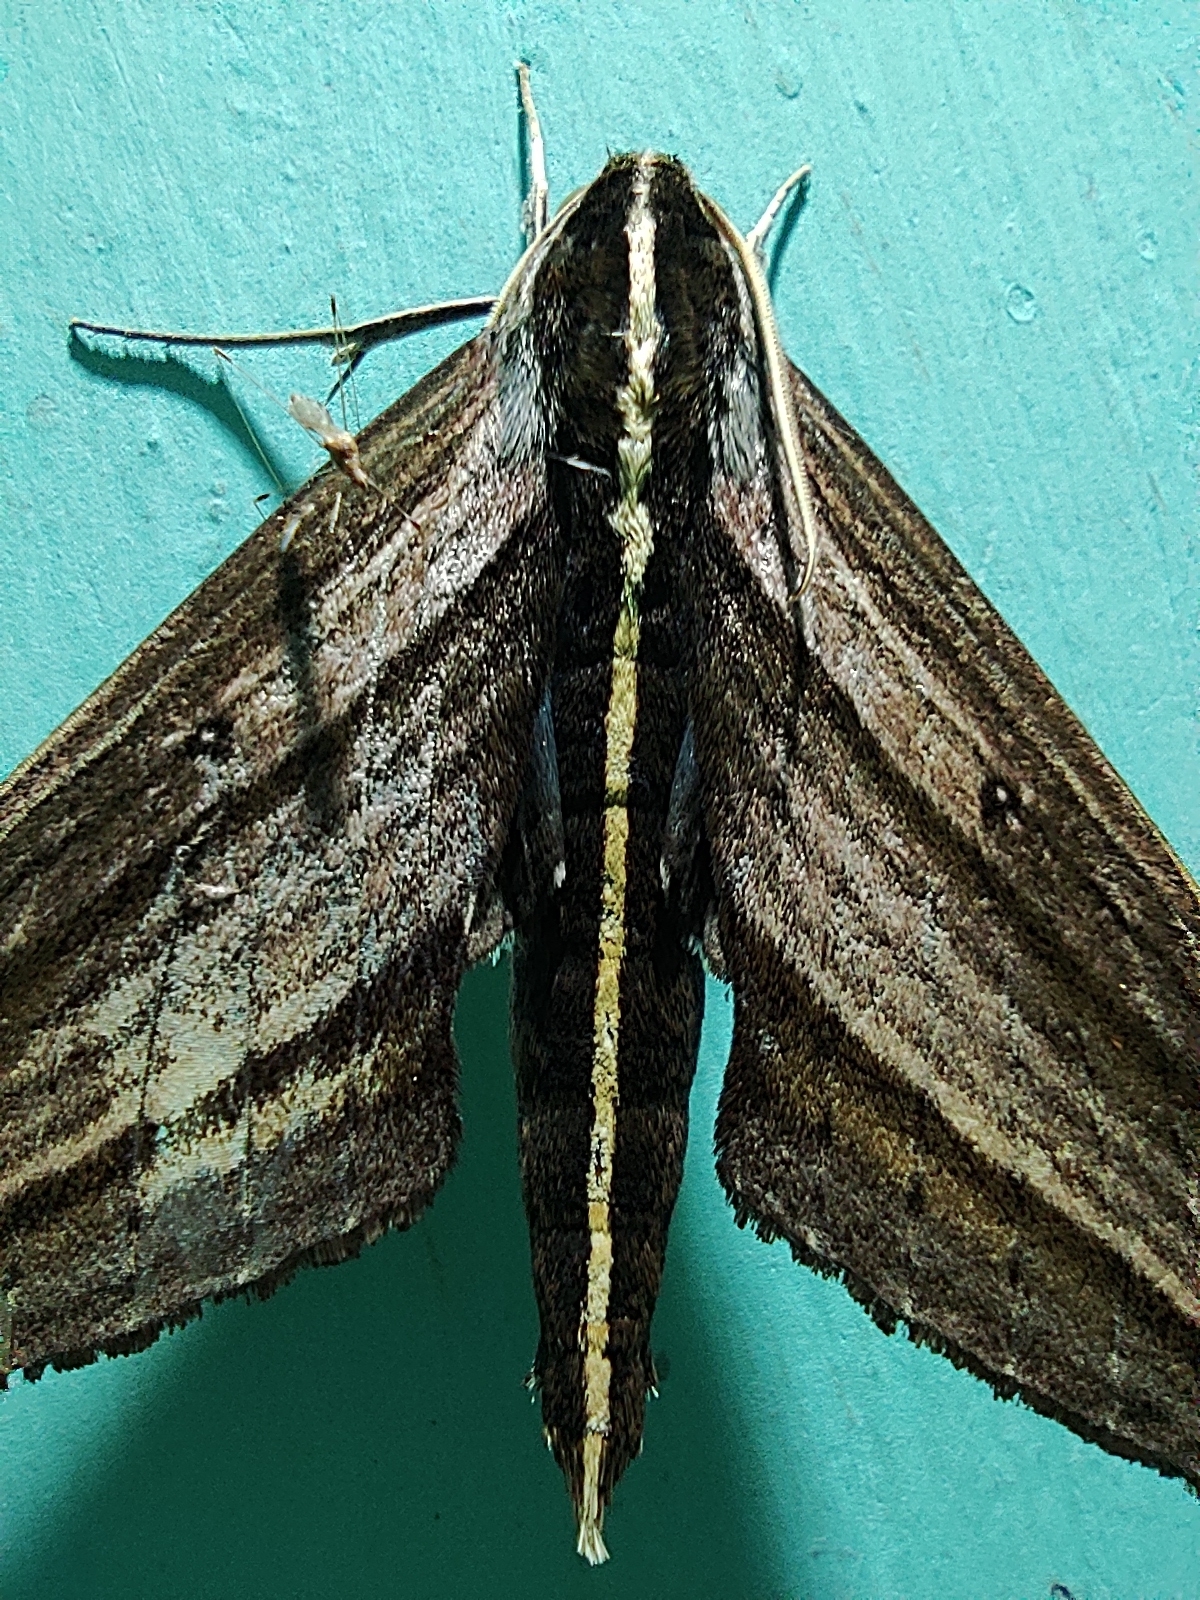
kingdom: Animalia
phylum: Arthropoda
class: Insecta
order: Lepidoptera
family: Sphingidae
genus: Elibia
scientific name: Elibia dolichus
